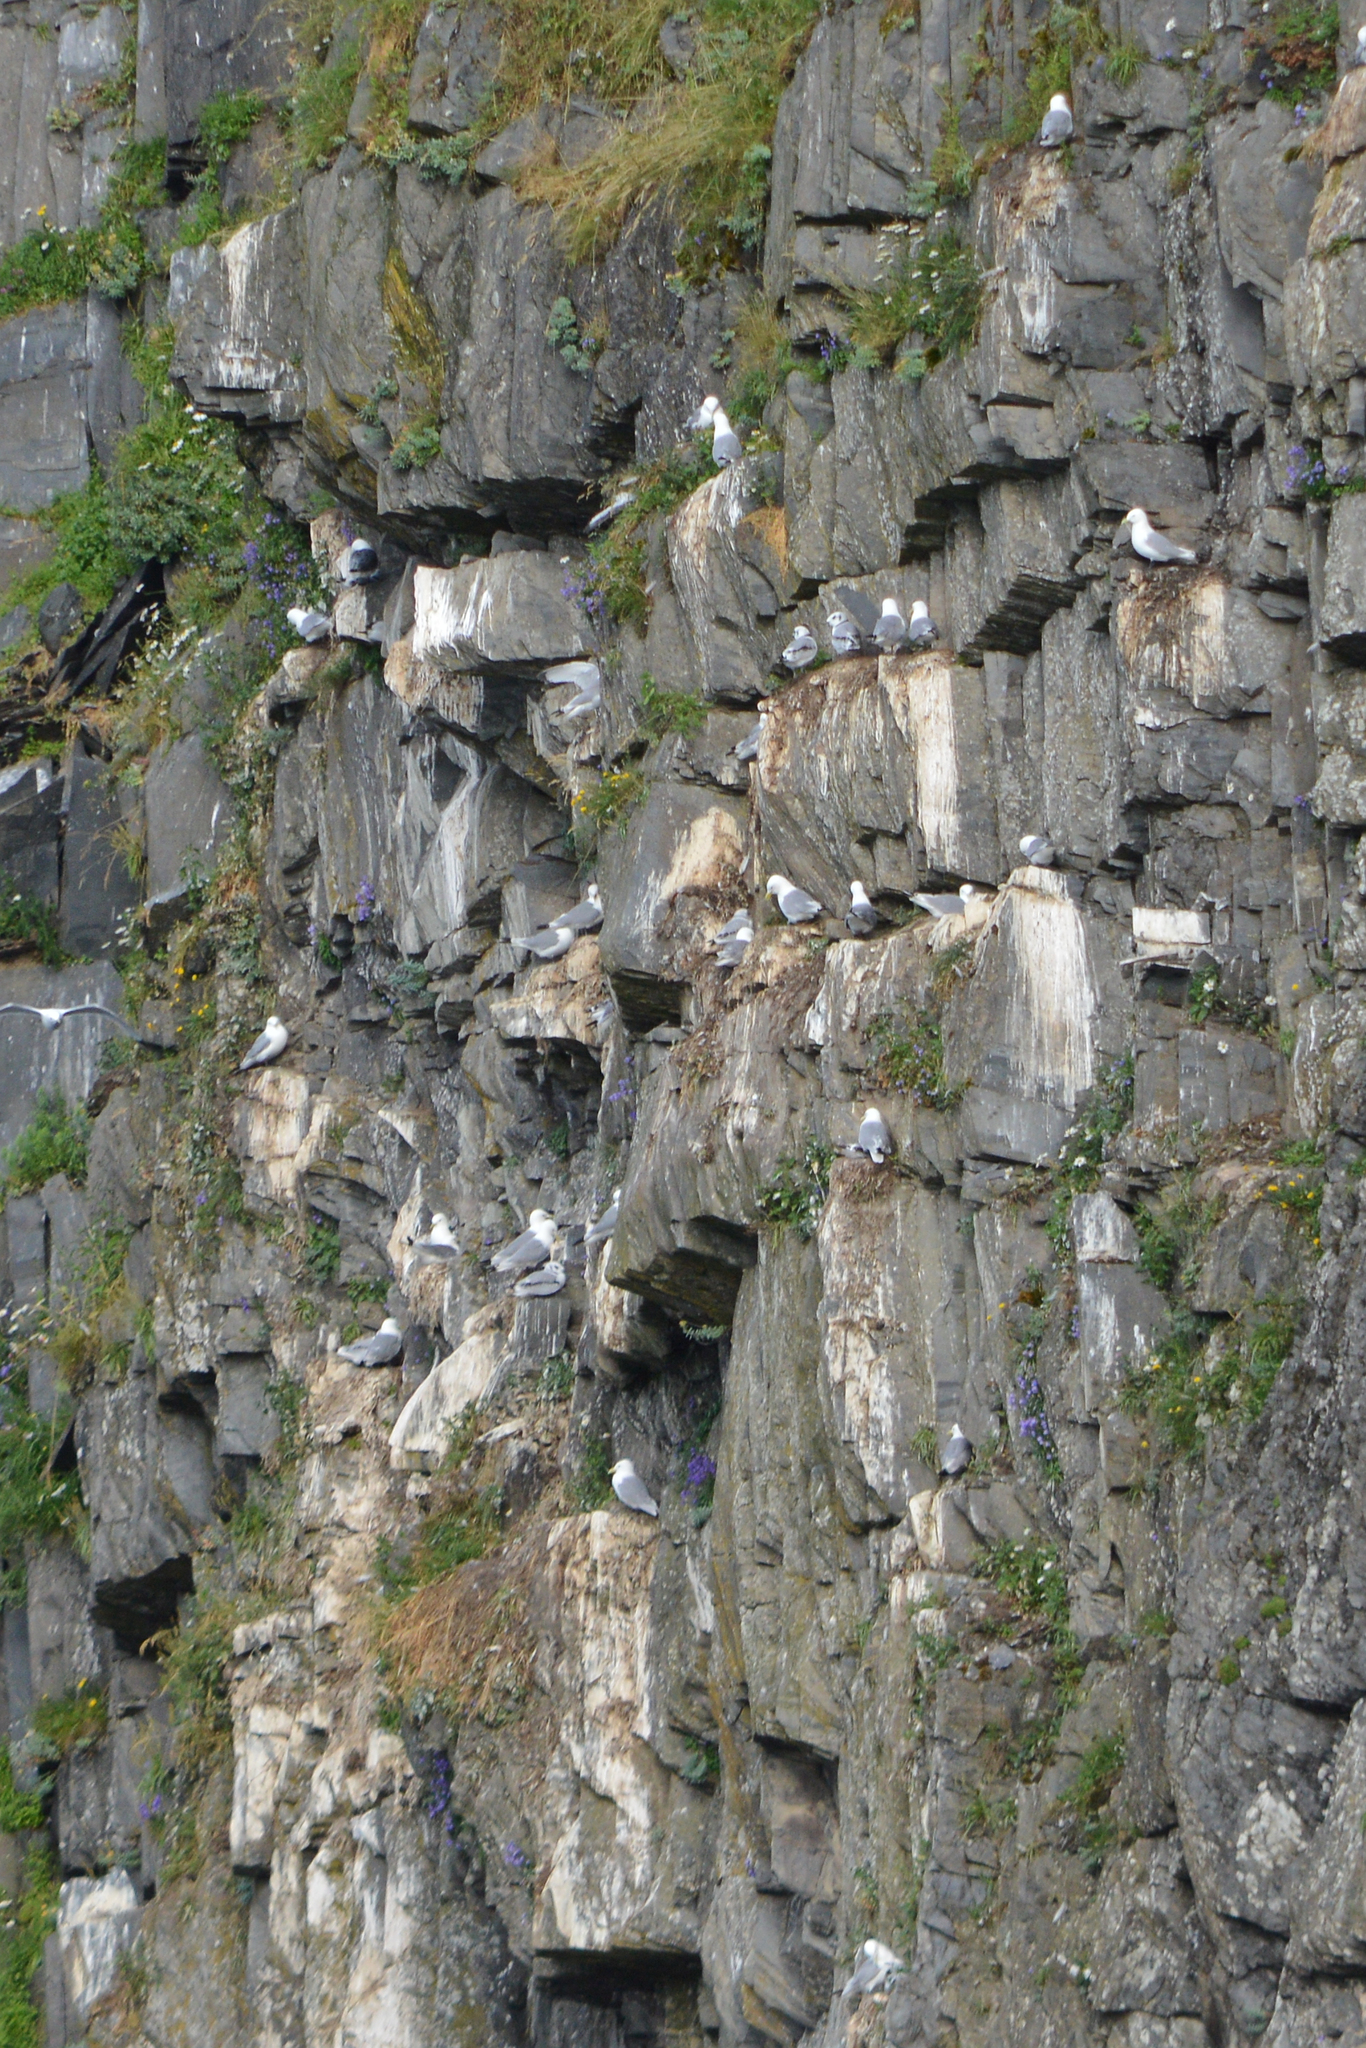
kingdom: Animalia
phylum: Chordata
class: Aves
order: Charadriiformes
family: Laridae
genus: Rissa
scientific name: Rissa tridactyla
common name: Black-legged kittiwake
